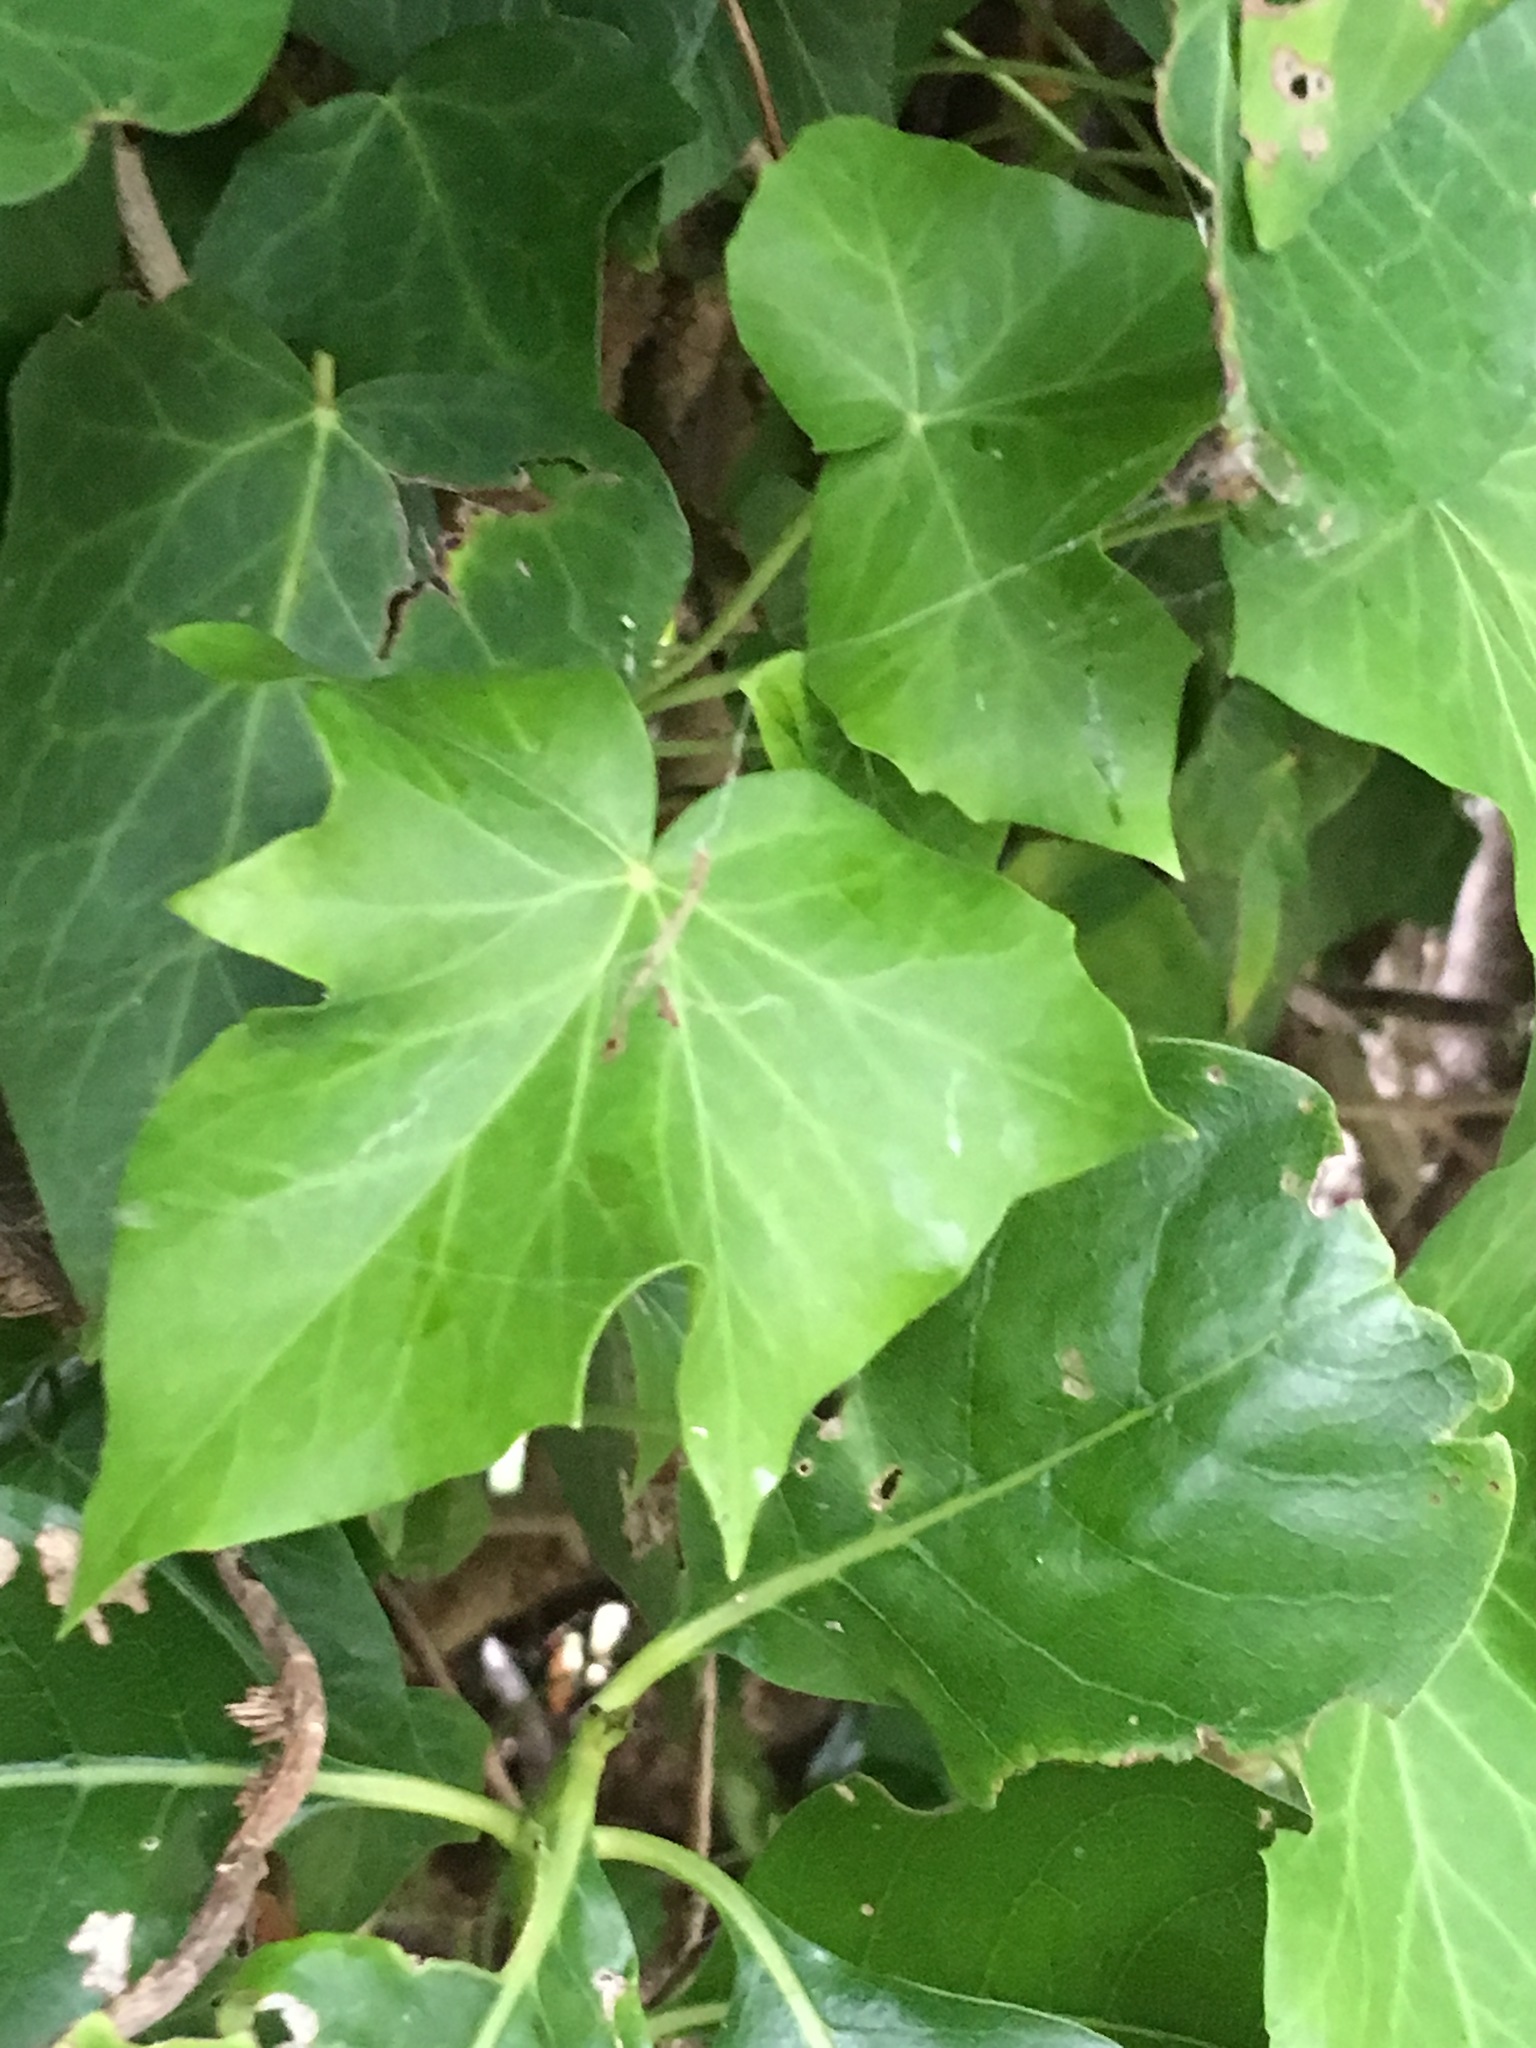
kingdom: Plantae
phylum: Tracheophyta
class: Magnoliopsida
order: Apiales
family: Araliaceae
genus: Hedera
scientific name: Hedera helix
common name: Ivy
